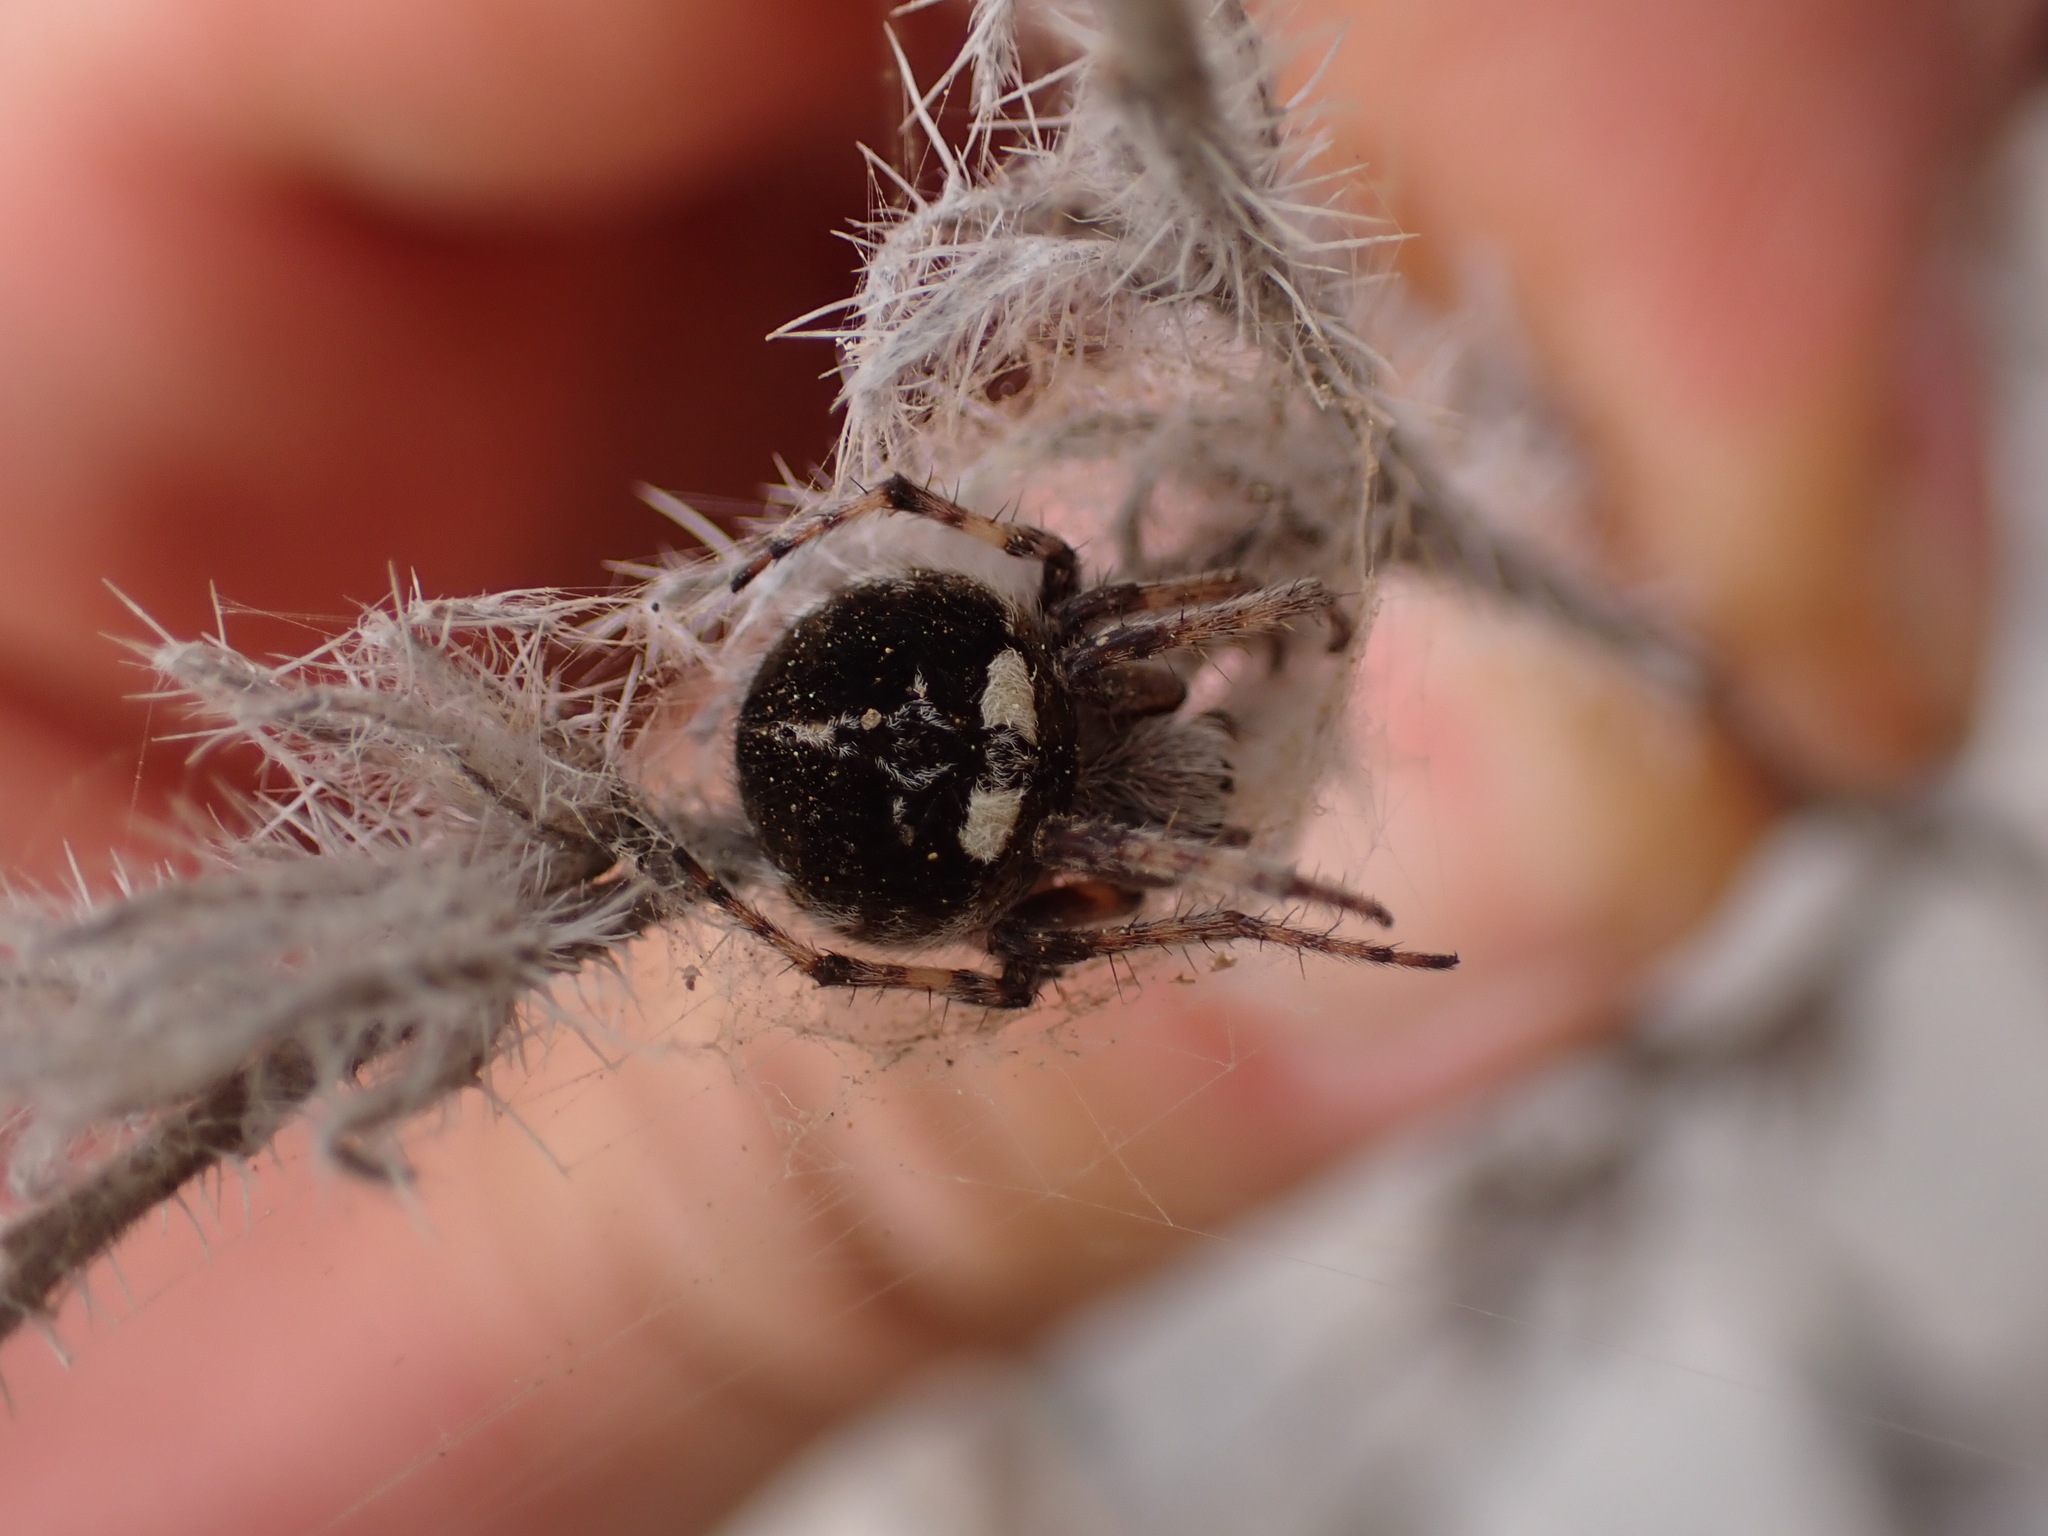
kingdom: Animalia
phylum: Arthropoda
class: Arachnida
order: Araneae
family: Araneidae
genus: Agalenatea
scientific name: Agalenatea redii
